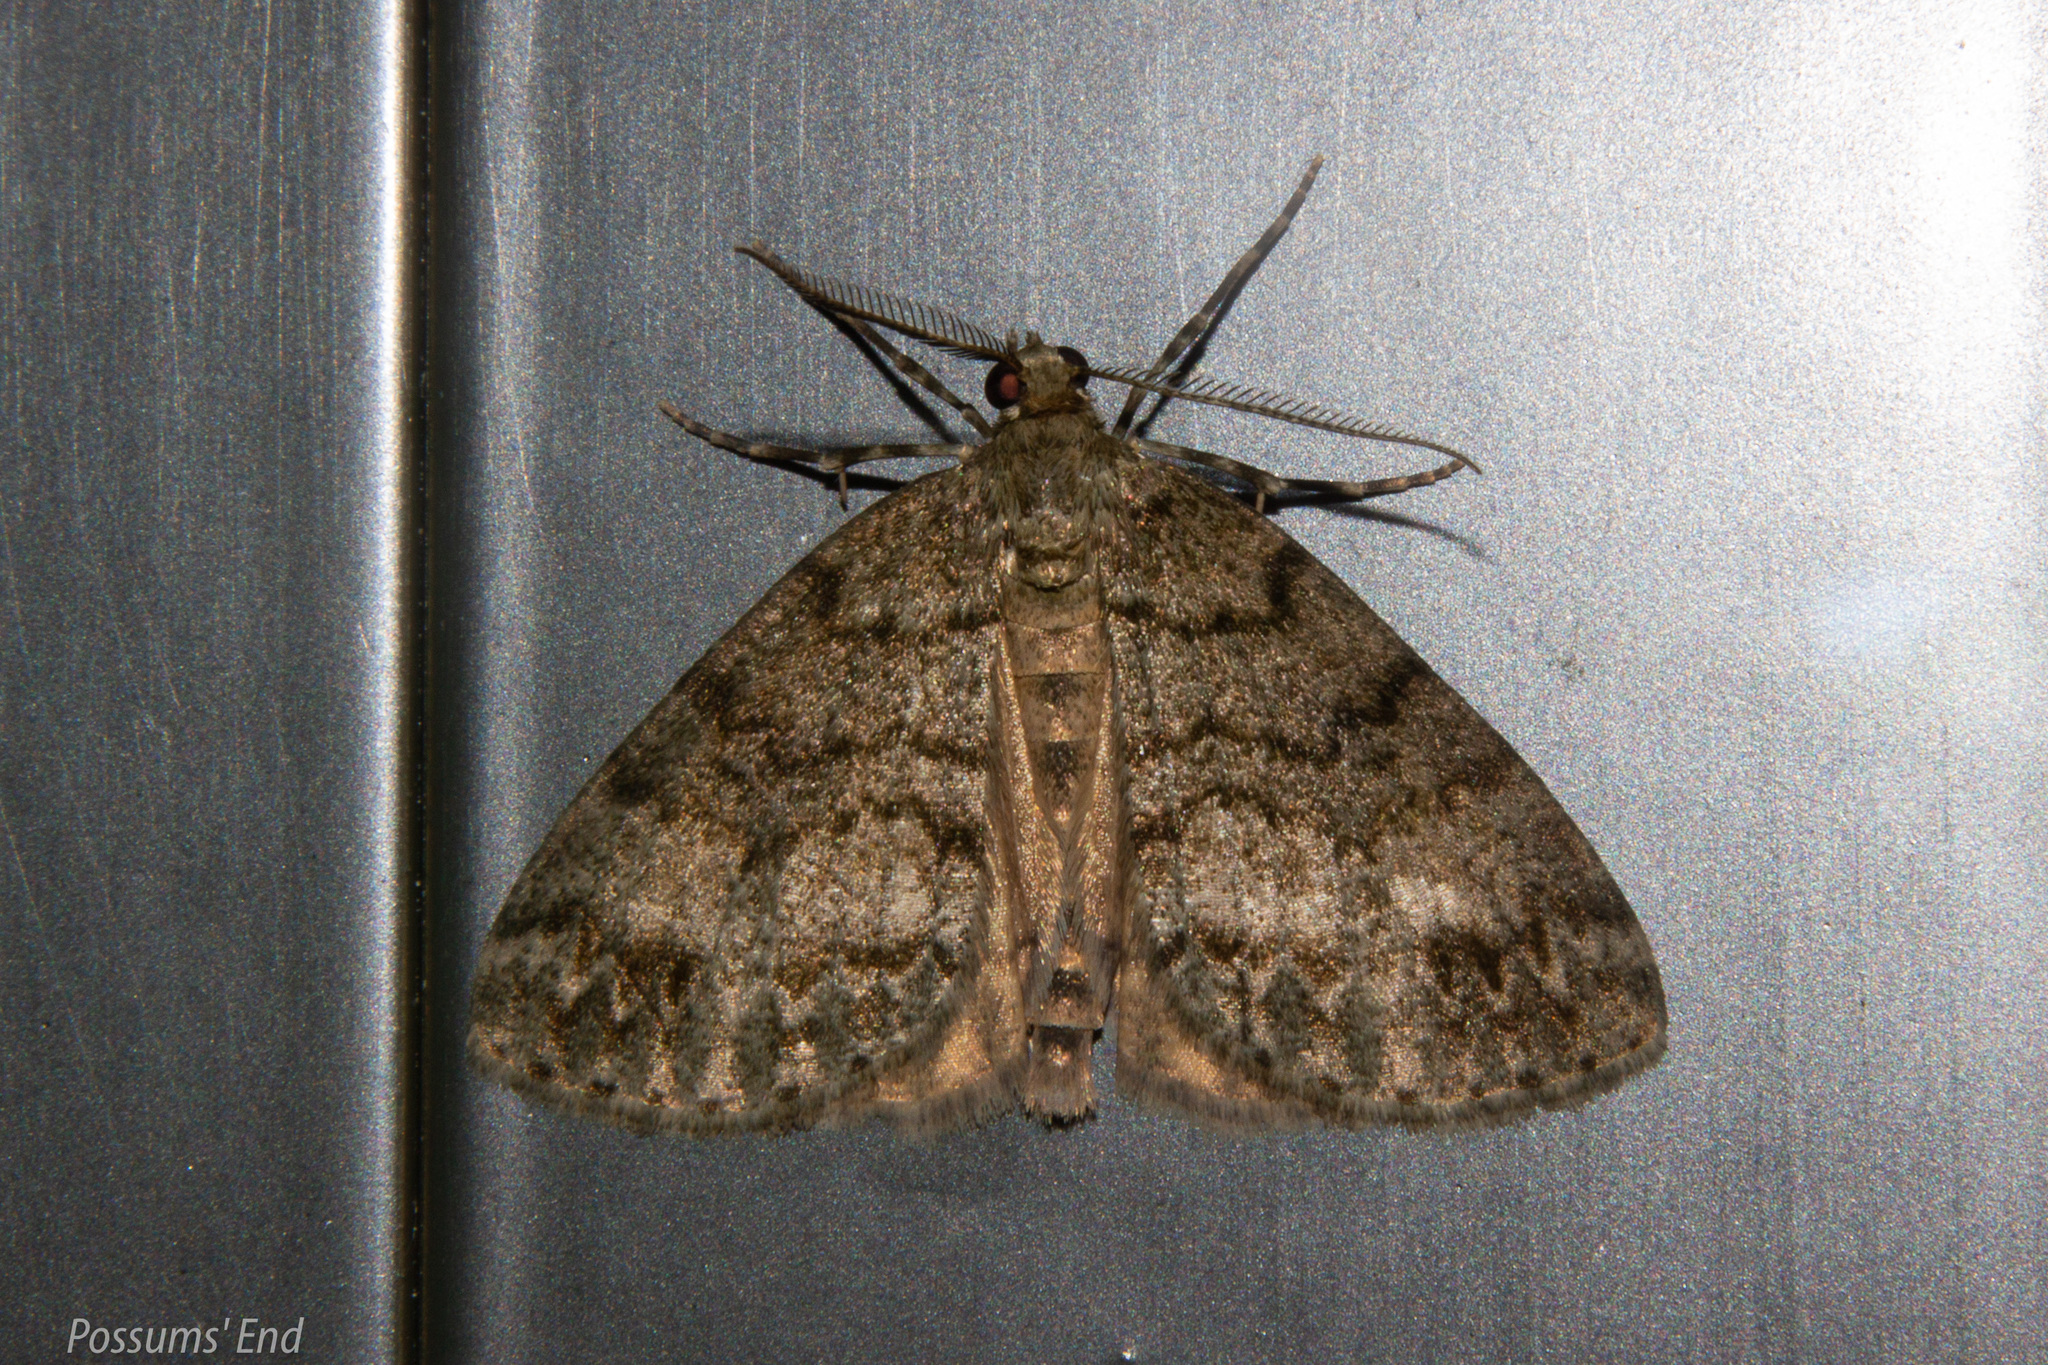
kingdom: Animalia
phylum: Arthropoda
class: Insecta
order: Lepidoptera
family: Geometridae
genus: Pseudocoremia
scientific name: Pseudocoremia indistincta
